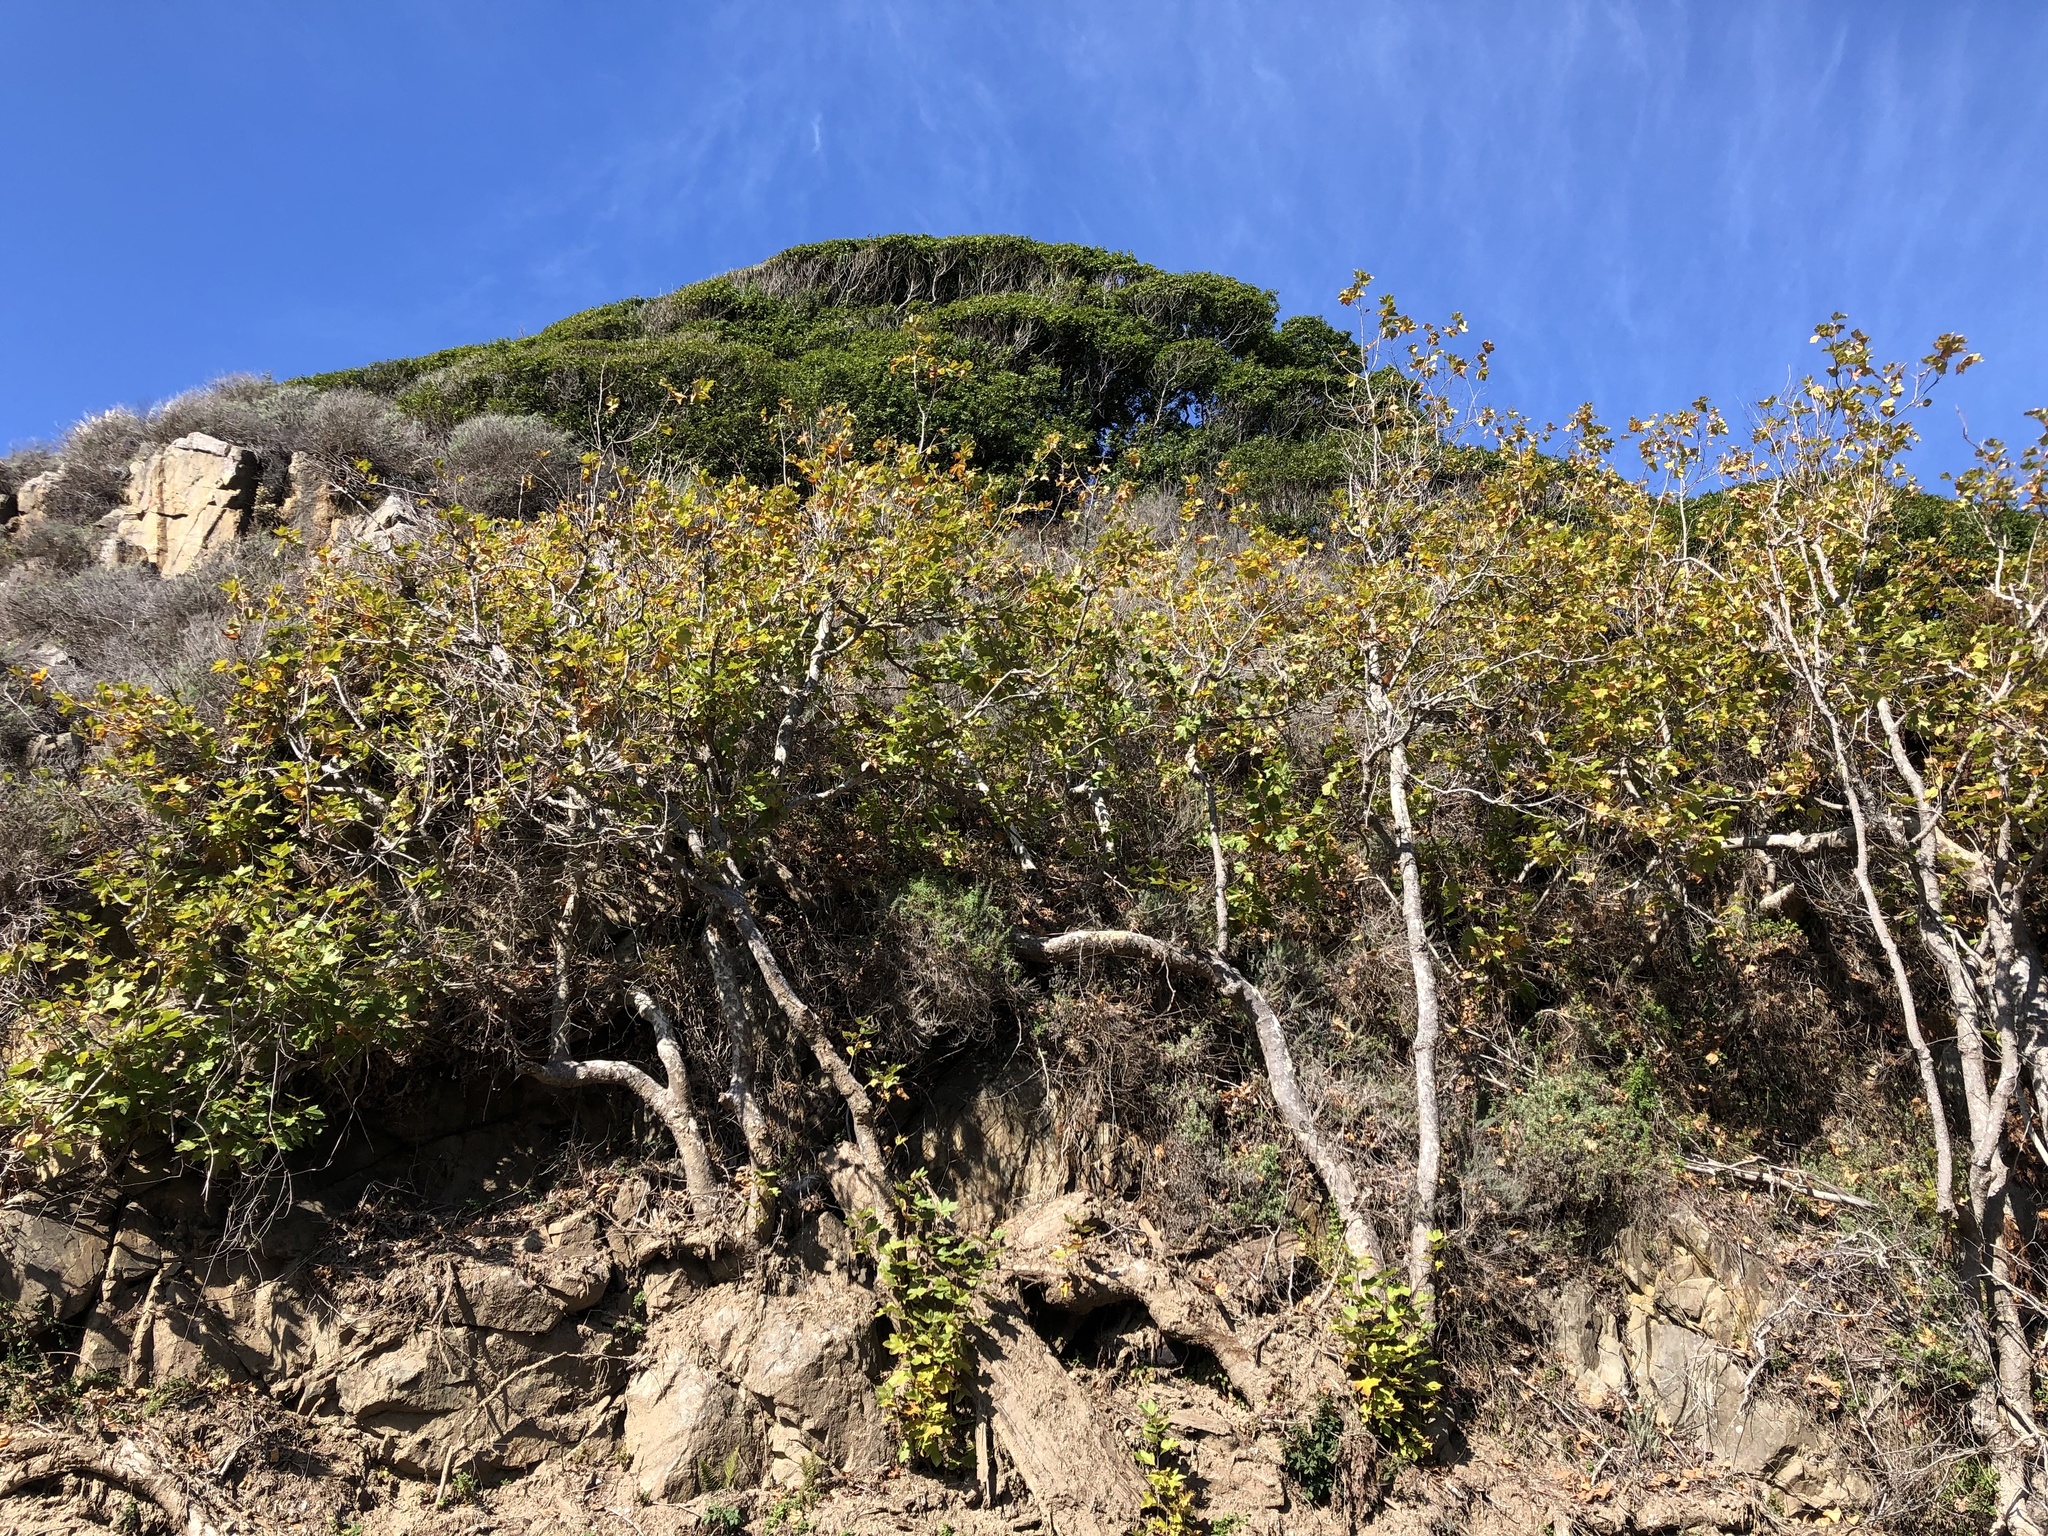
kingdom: Plantae
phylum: Tracheophyta
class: Magnoliopsida
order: Proteales
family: Platanaceae
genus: Platanus
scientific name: Platanus racemosa
